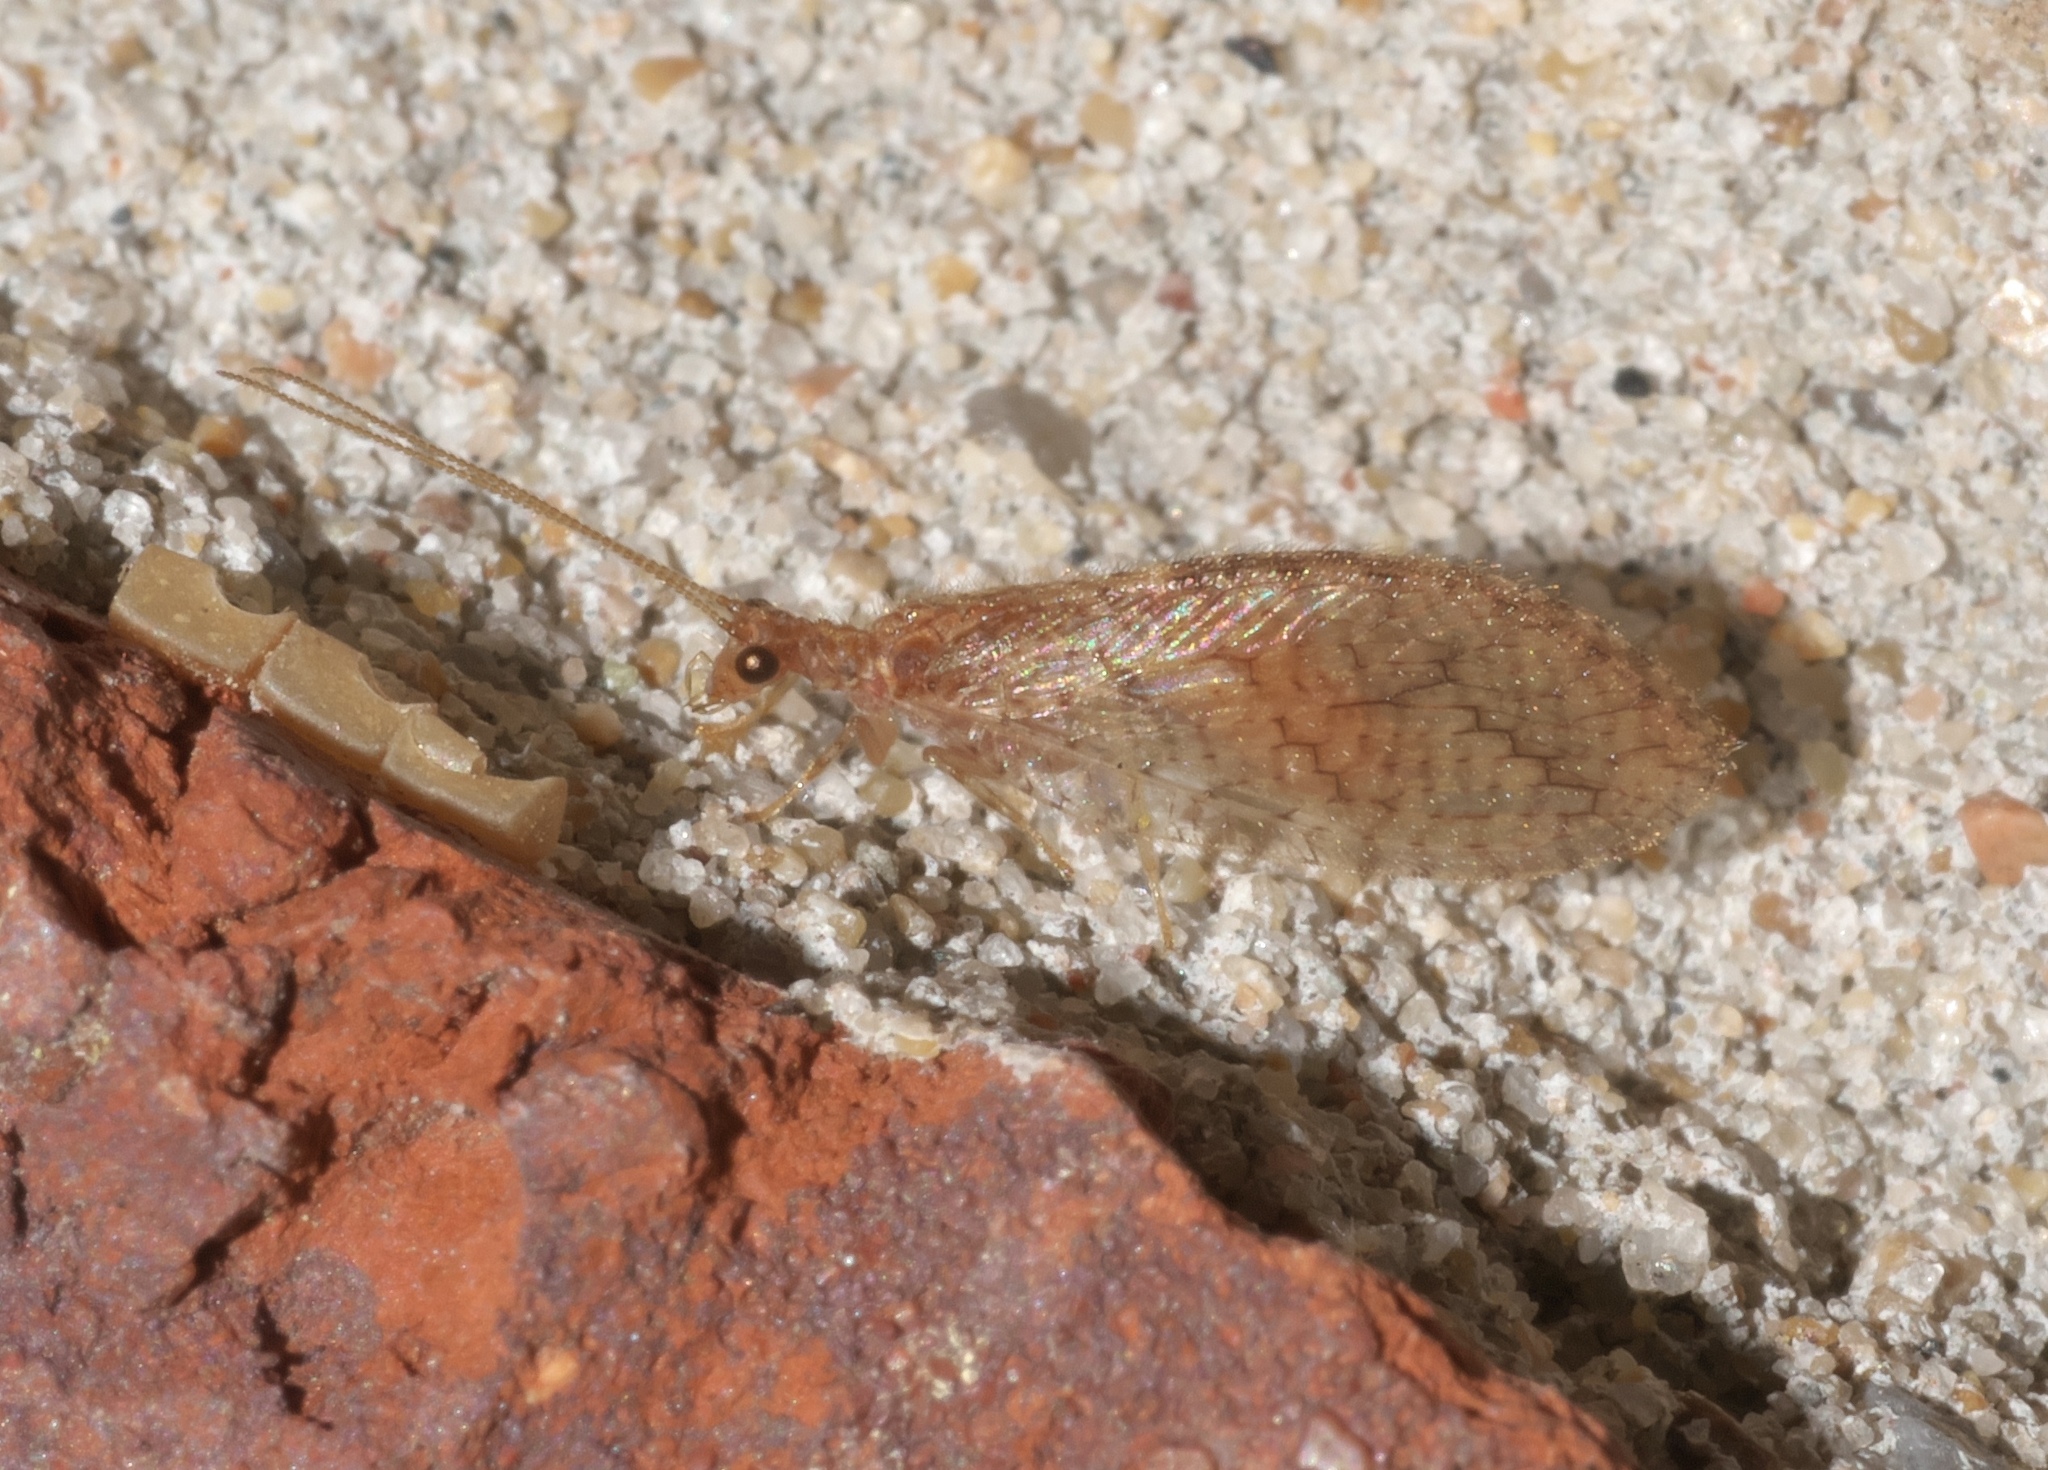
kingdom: Animalia
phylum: Arthropoda
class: Insecta
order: Neuroptera
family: Hemerobiidae
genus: Micromus
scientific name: Micromus posticus
